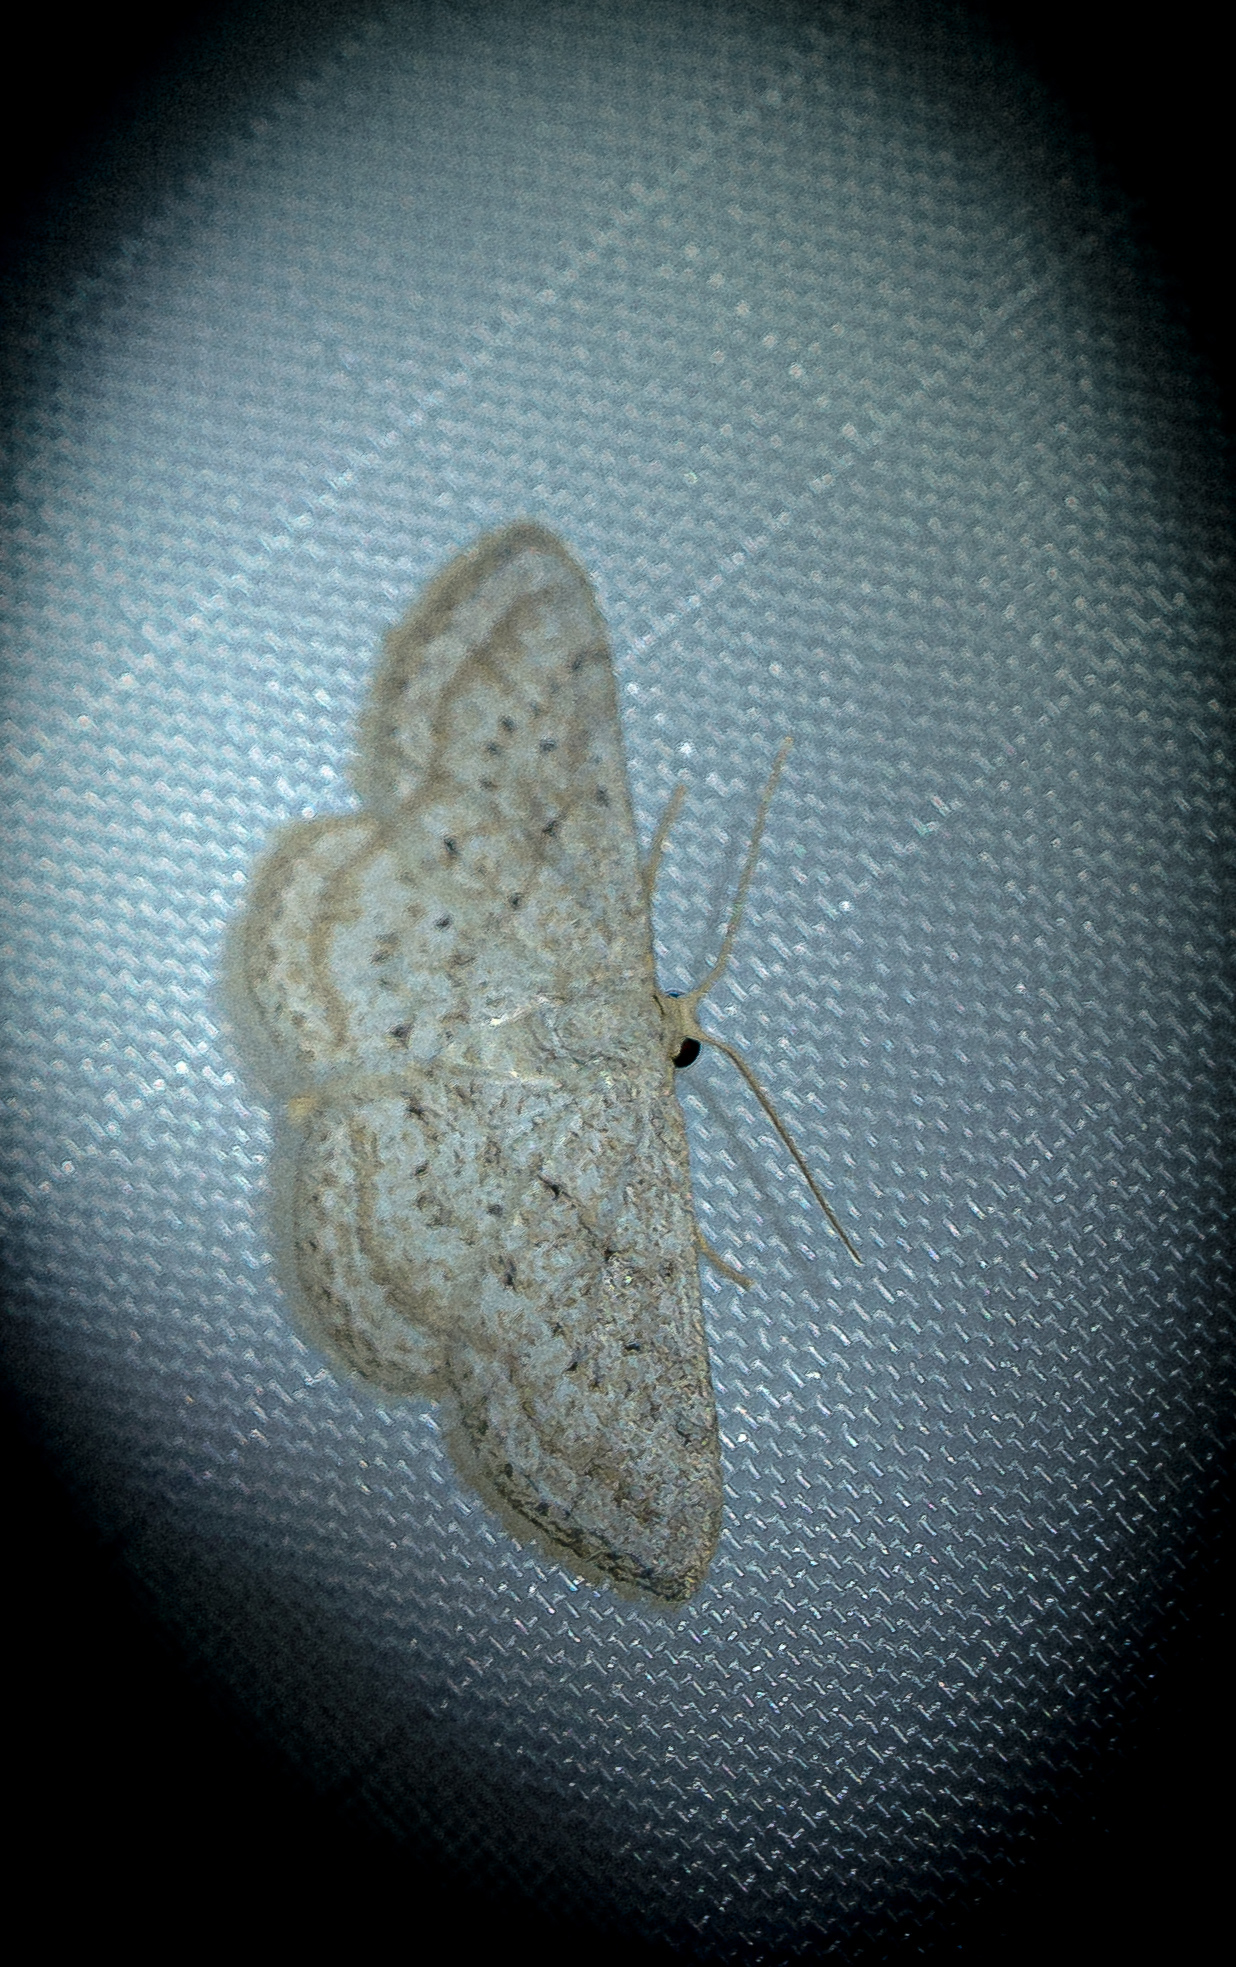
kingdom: Animalia
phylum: Arthropoda
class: Insecta
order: Lepidoptera
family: Geometridae
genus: Lobocleta
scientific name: Lobocleta ossularia
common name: Drab brown wave
